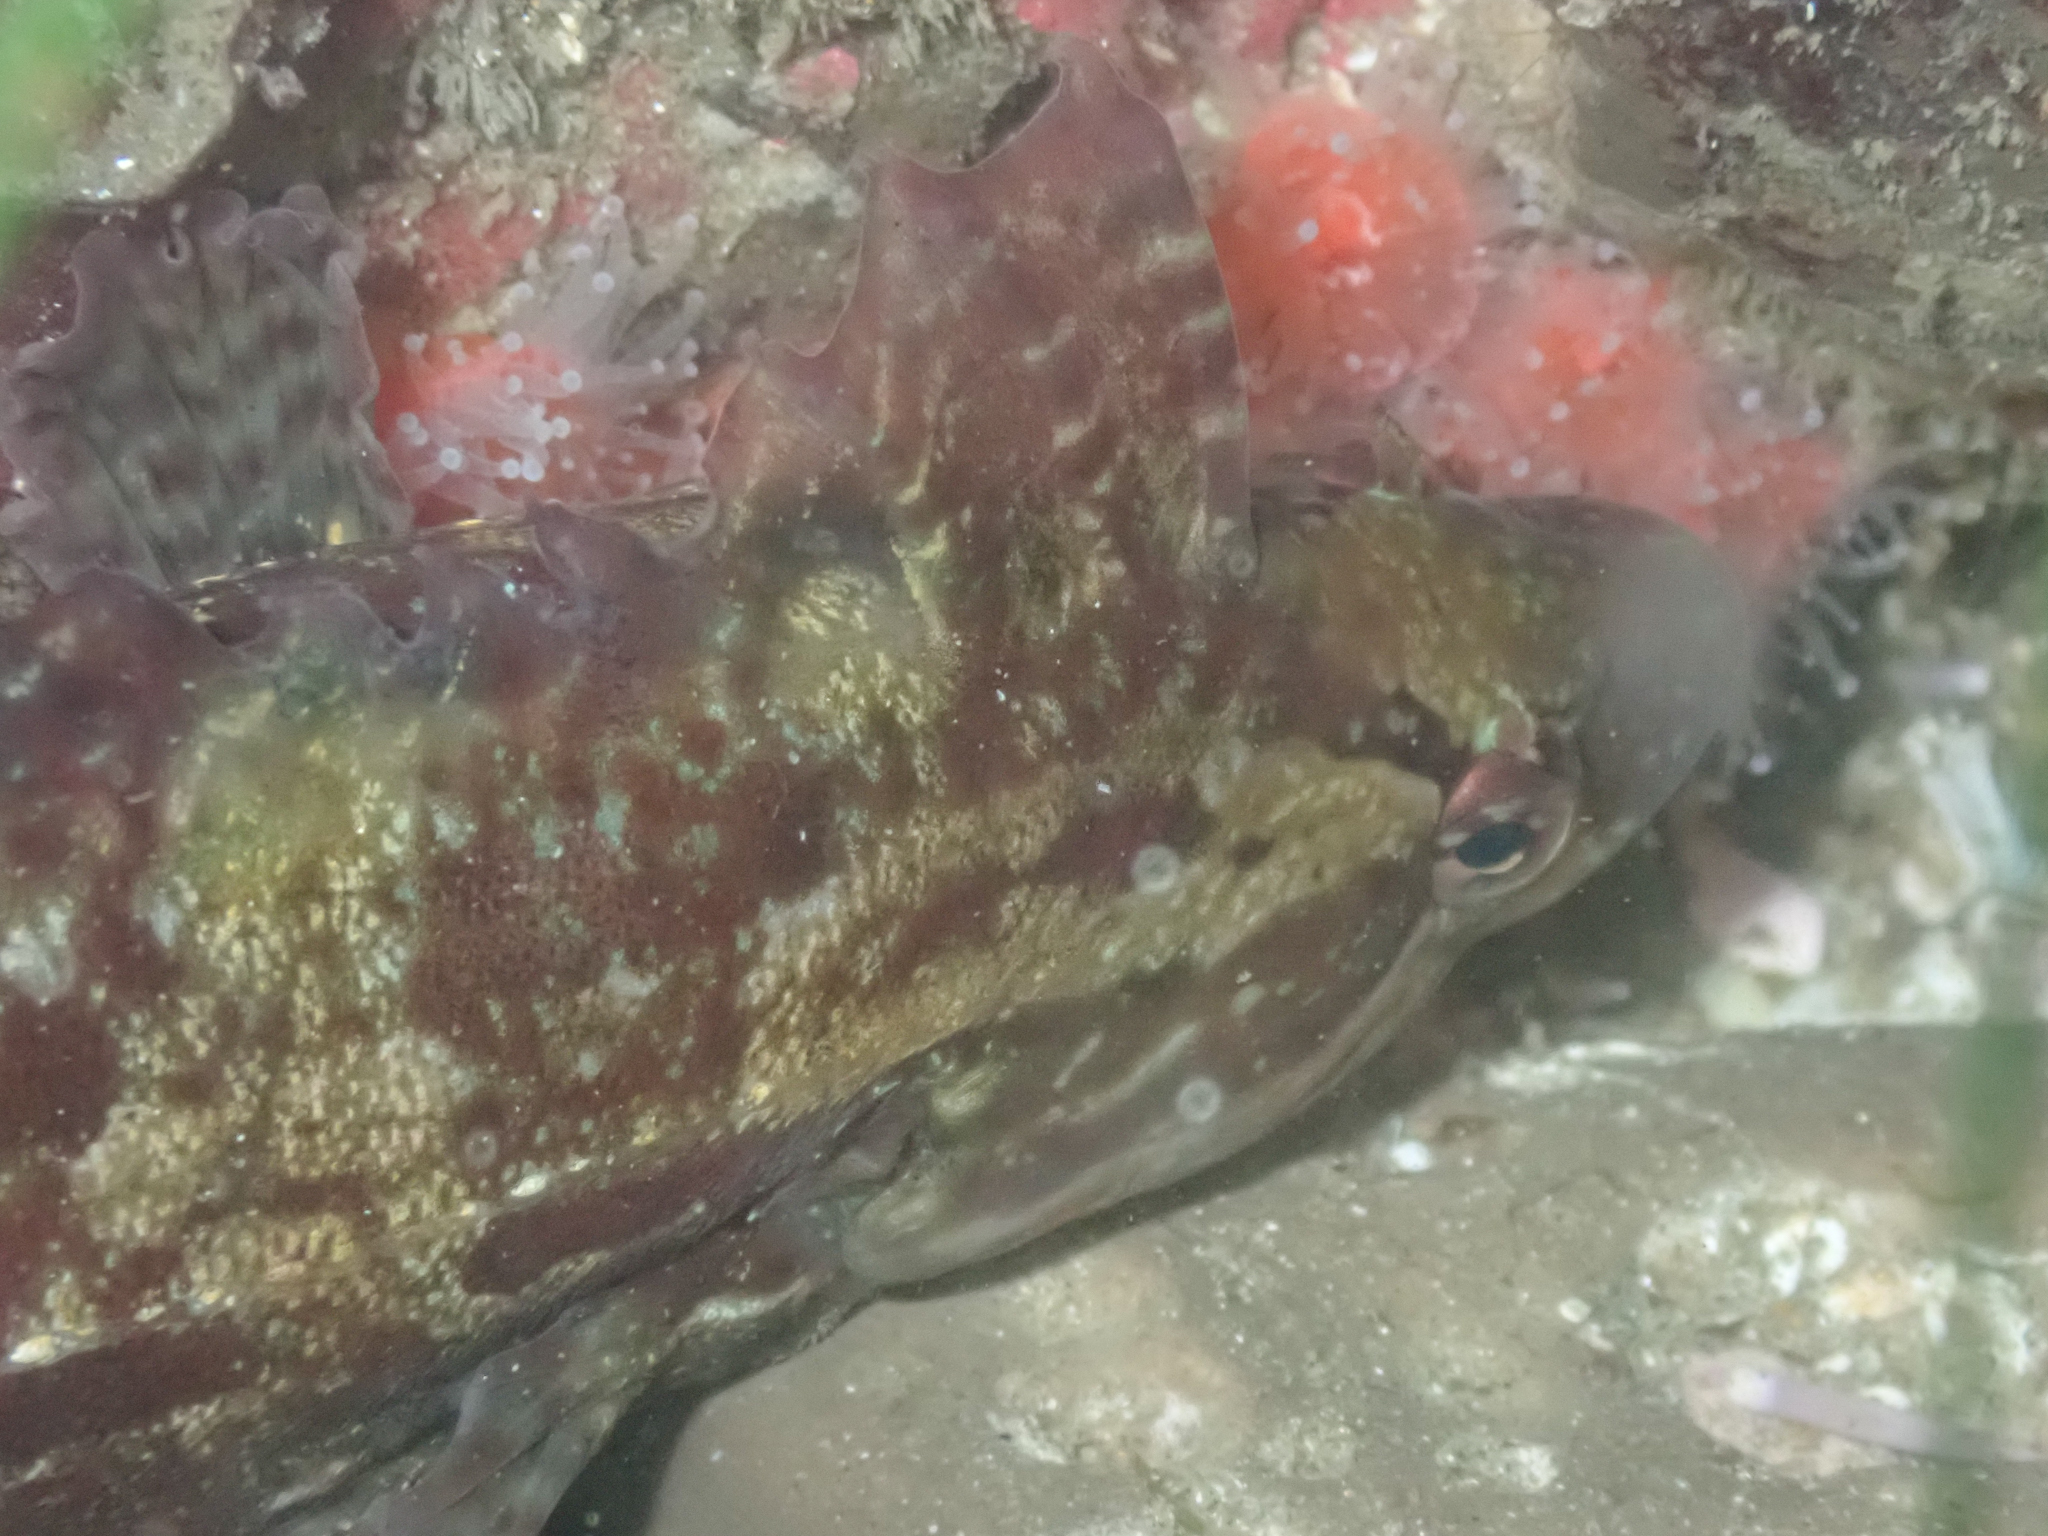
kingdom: Animalia
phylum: Chordata
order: Perciformes
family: Clinidae
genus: Gibbonsia
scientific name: Gibbonsia metzi
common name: Striped kelpfish
